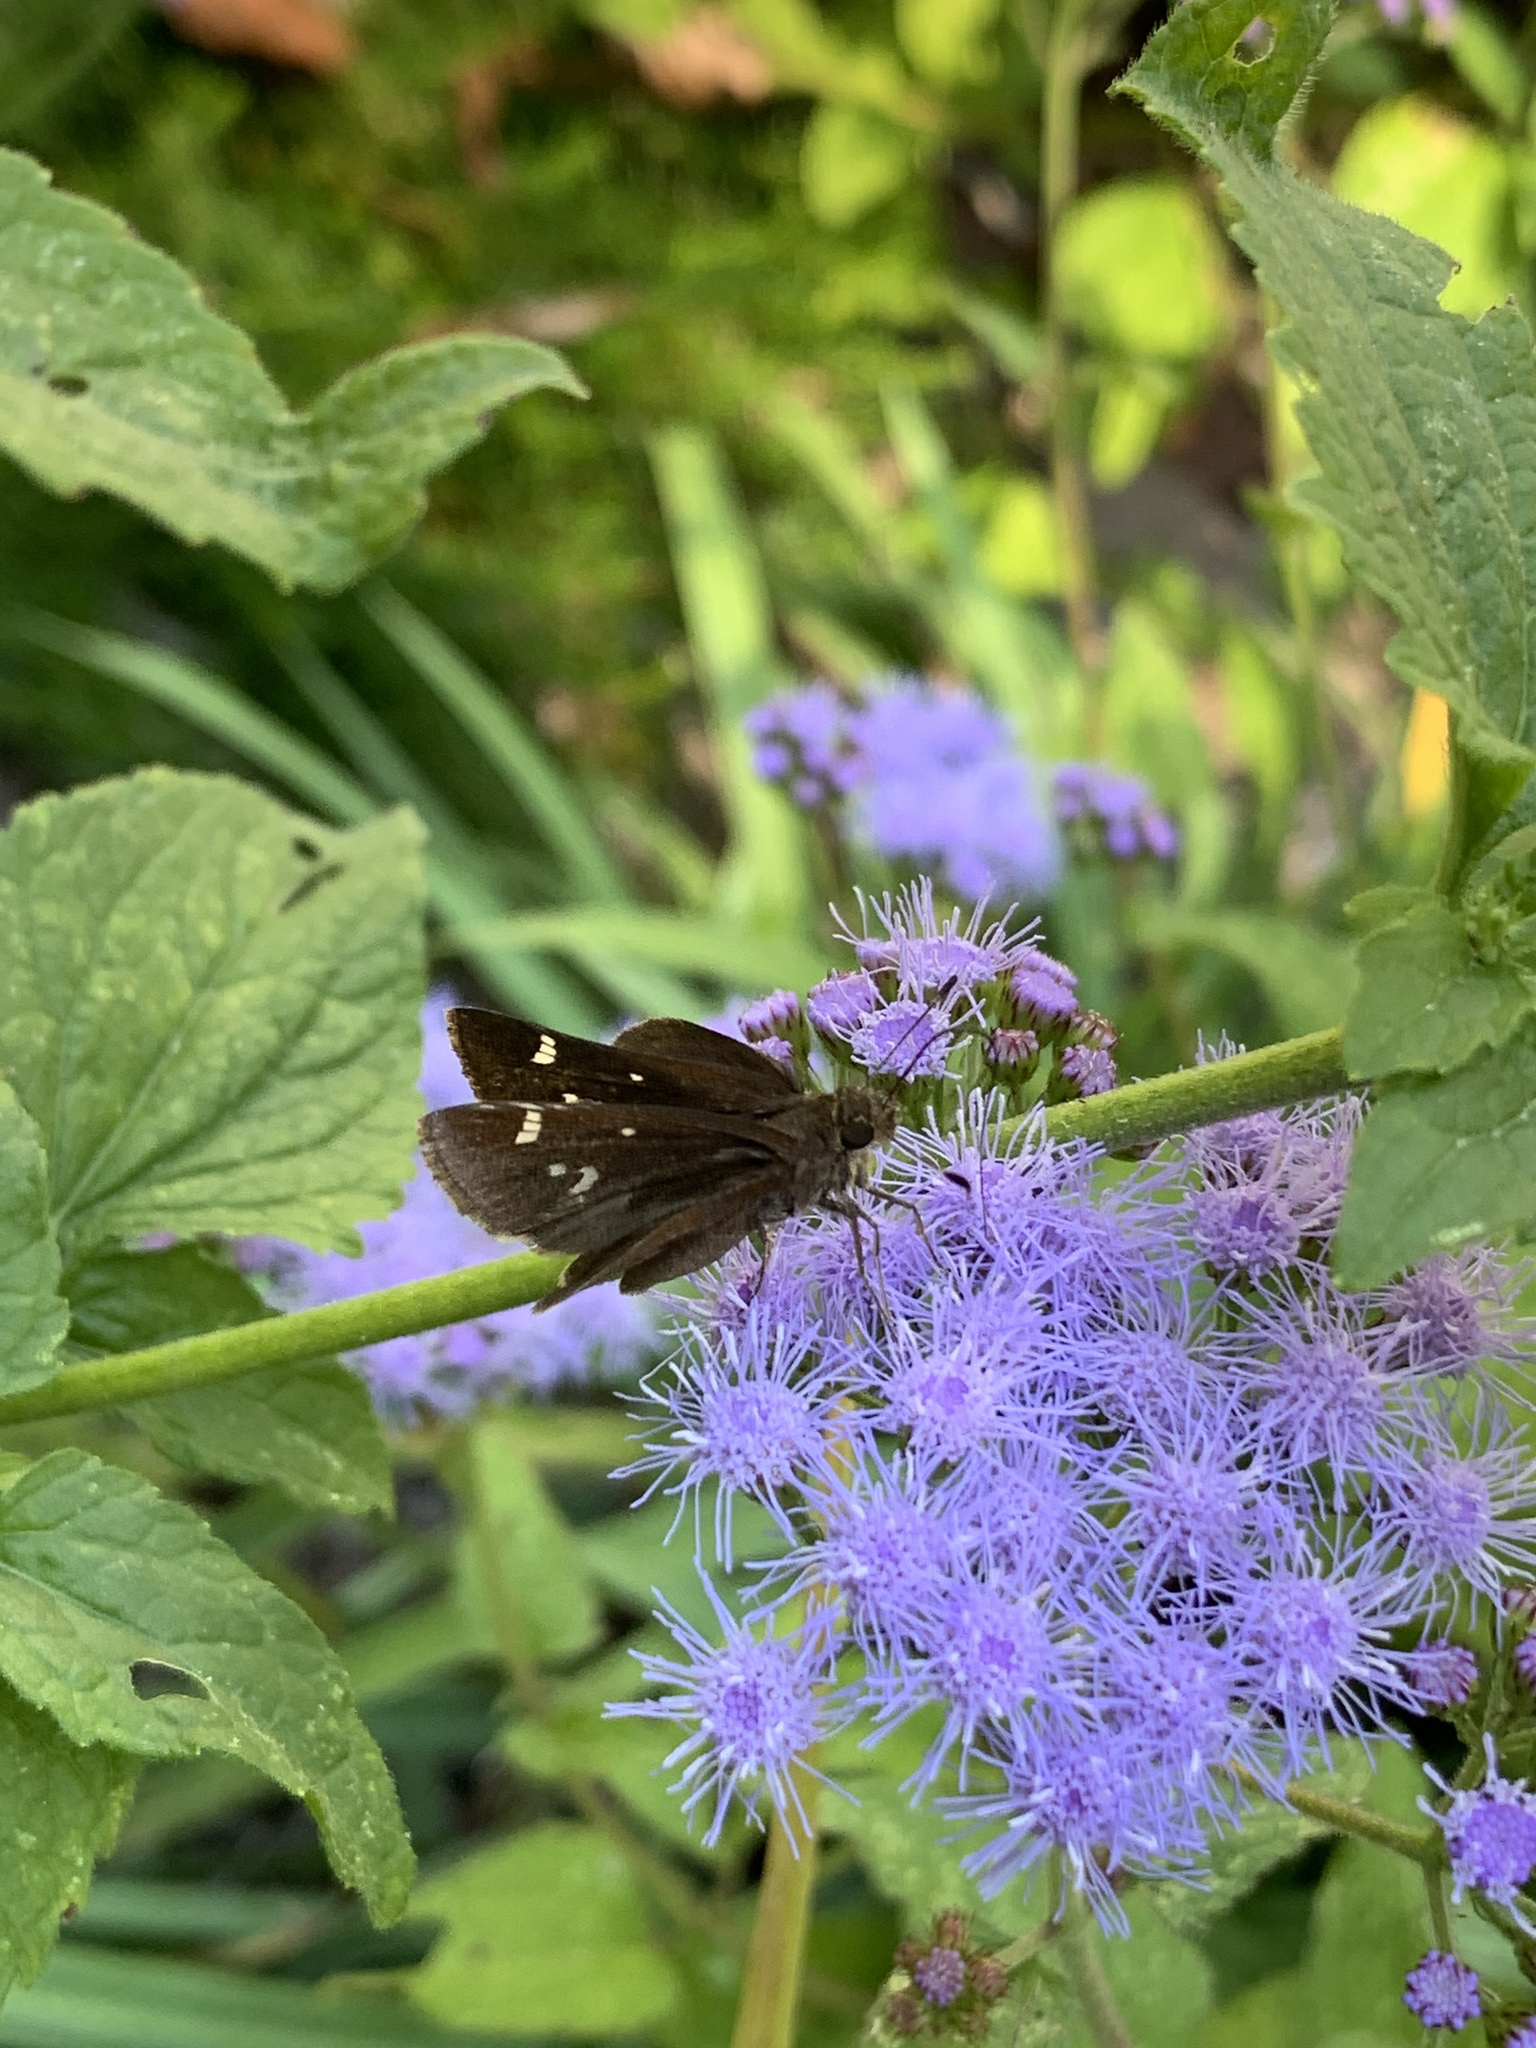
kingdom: Animalia
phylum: Arthropoda
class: Insecta
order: Lepidoptera
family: Hesperiidae
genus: Lerema
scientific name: Lerema accius
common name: Clouded skipper
